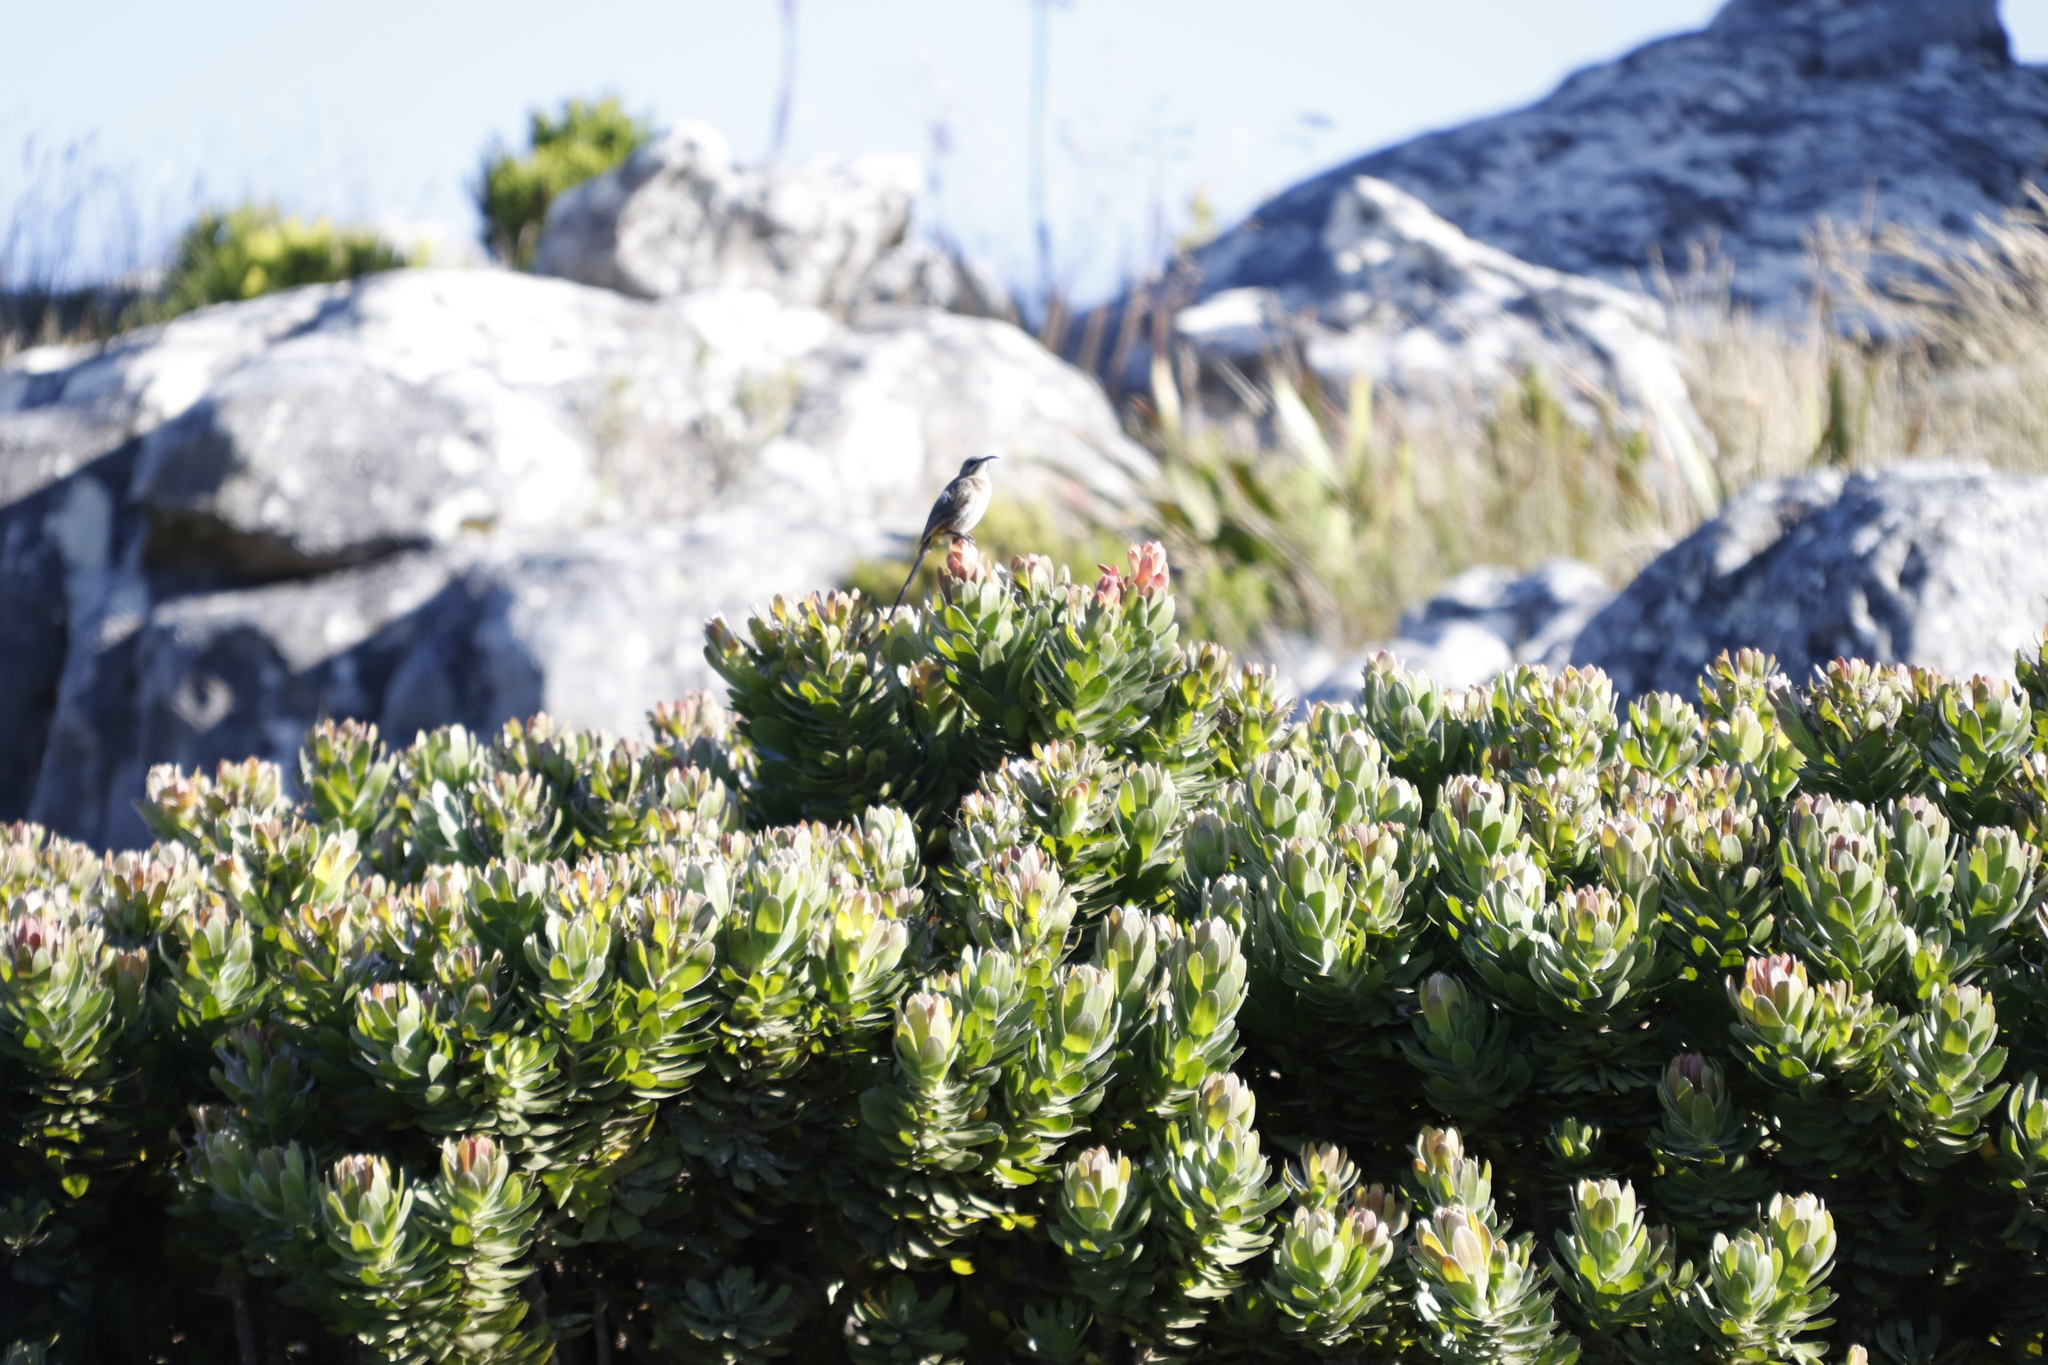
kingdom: Plantae
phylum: Tracheophyta
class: Magnoliopsida
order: Proteales
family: Proteaceae
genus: Mimetes
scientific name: Mimetes fimbriifolius
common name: Fringed bottlebrush
